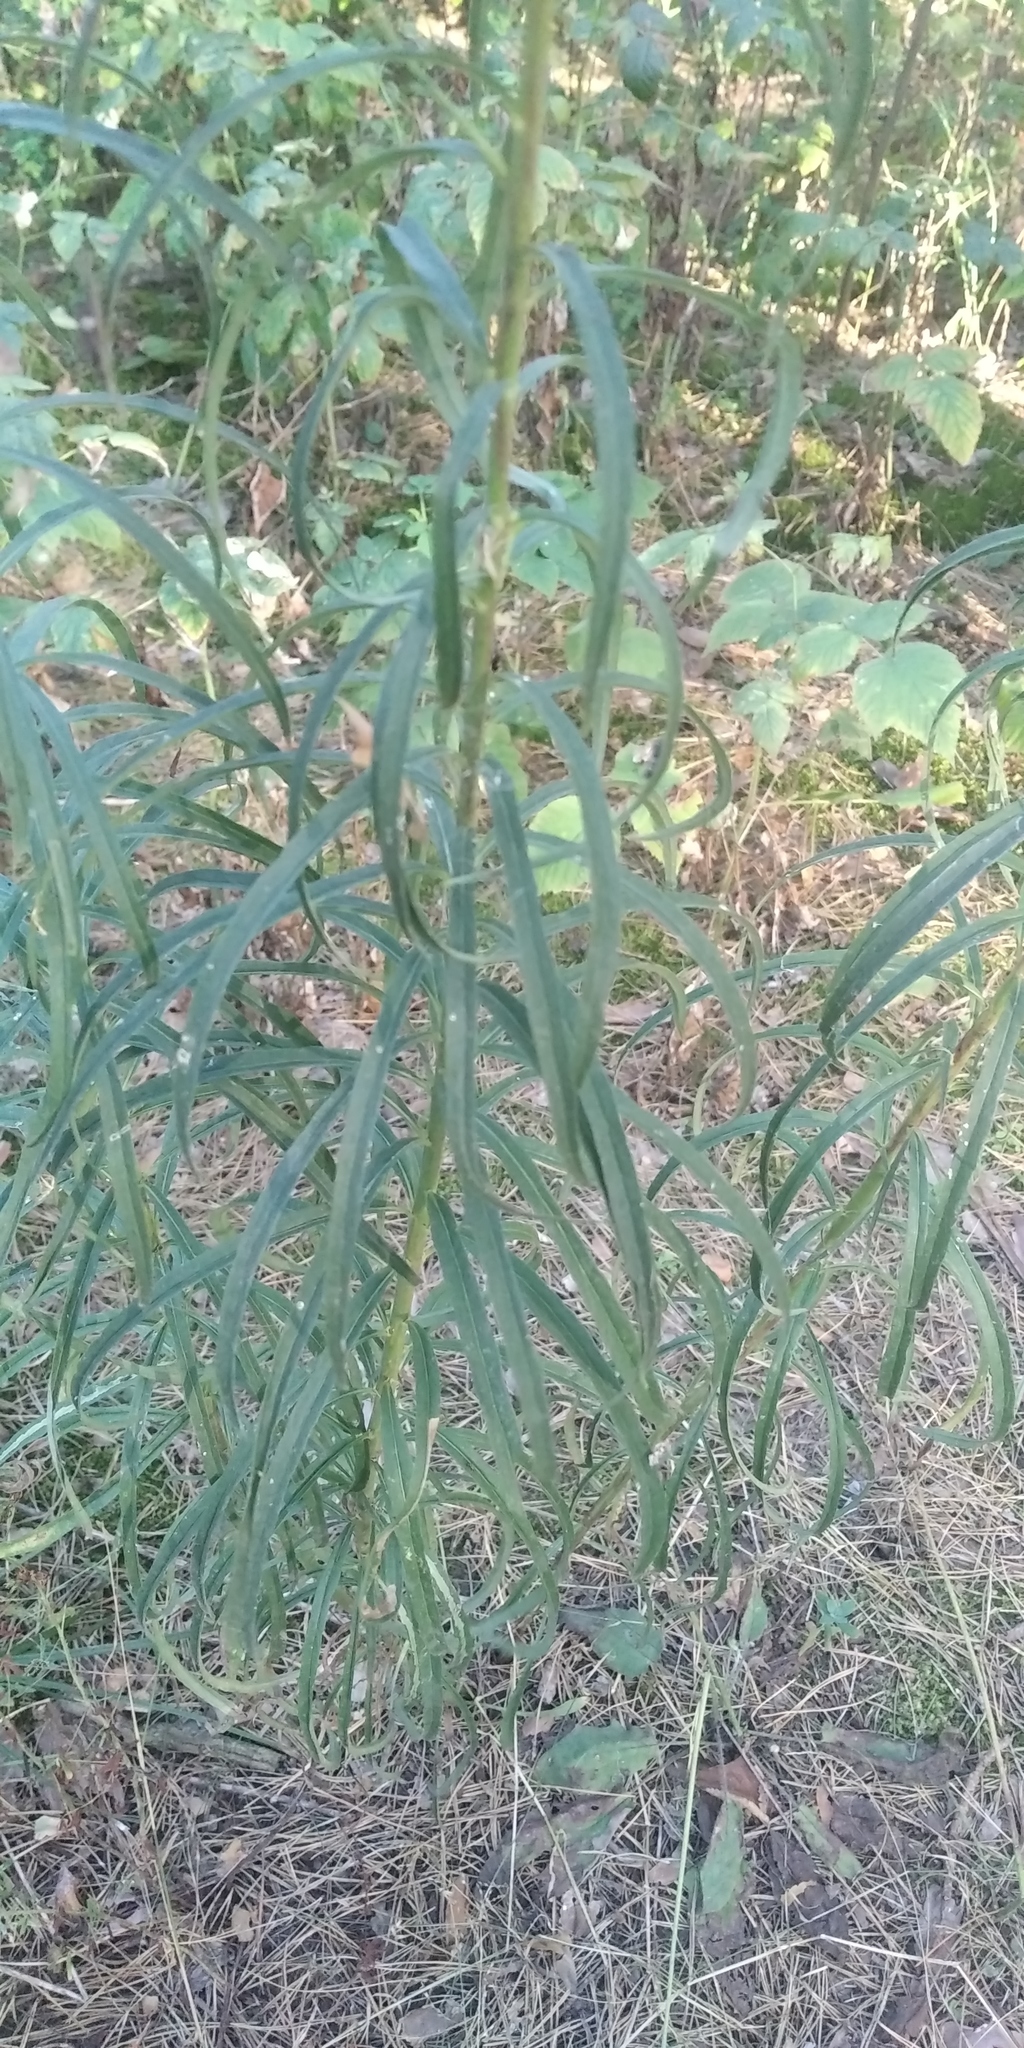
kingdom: Plantae
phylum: Tracheophyta
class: Magnoliopsida
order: Asterales
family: Asteraceae
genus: Hieracium
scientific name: Hieracium umbellatum
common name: Northern hawkweed
